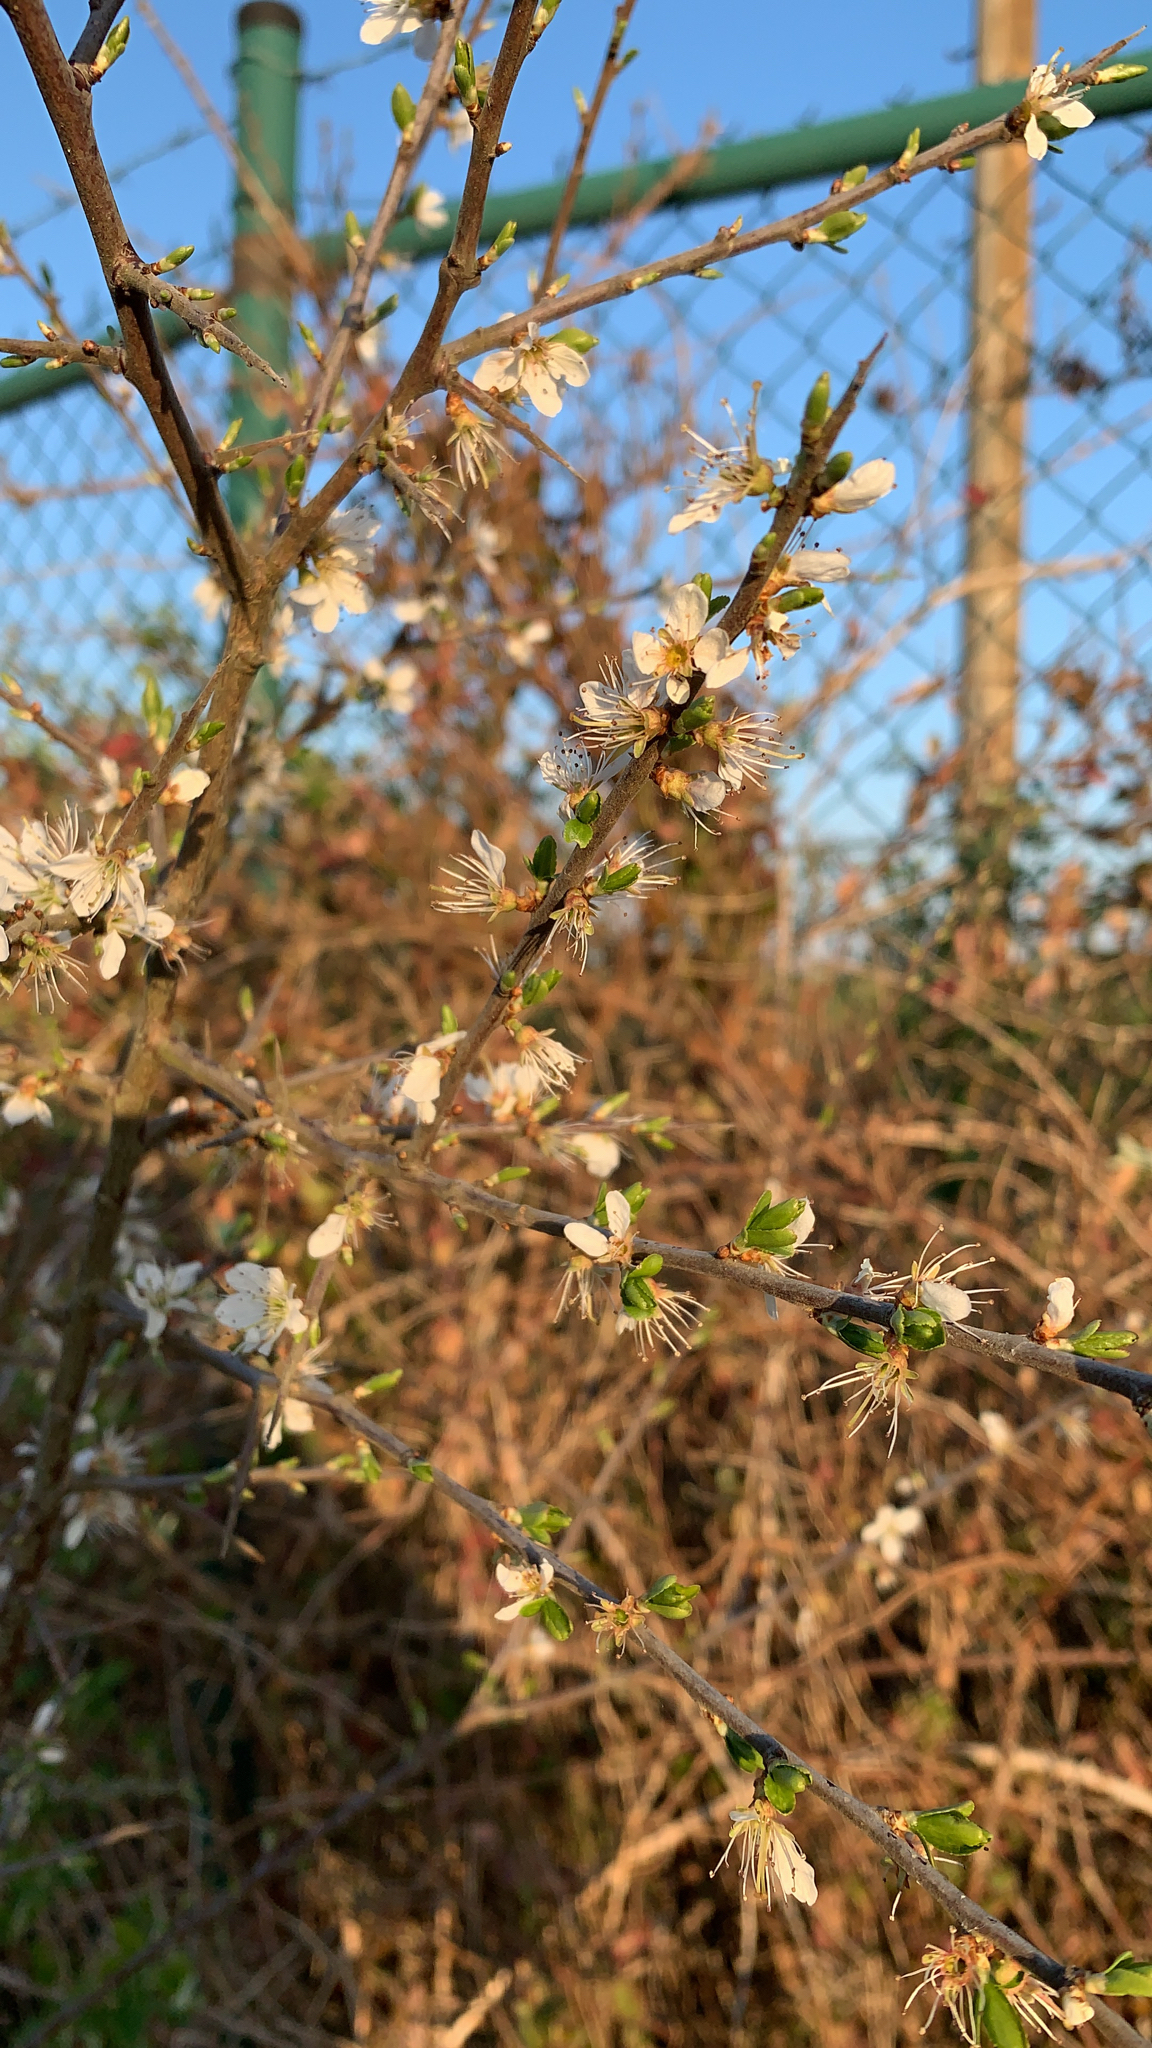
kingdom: Plantae
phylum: Tracheophyta
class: Magnoliopsida
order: Rosales
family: Rosaceae
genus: Prunus
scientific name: Prunus spinosa
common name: Blackthorn
